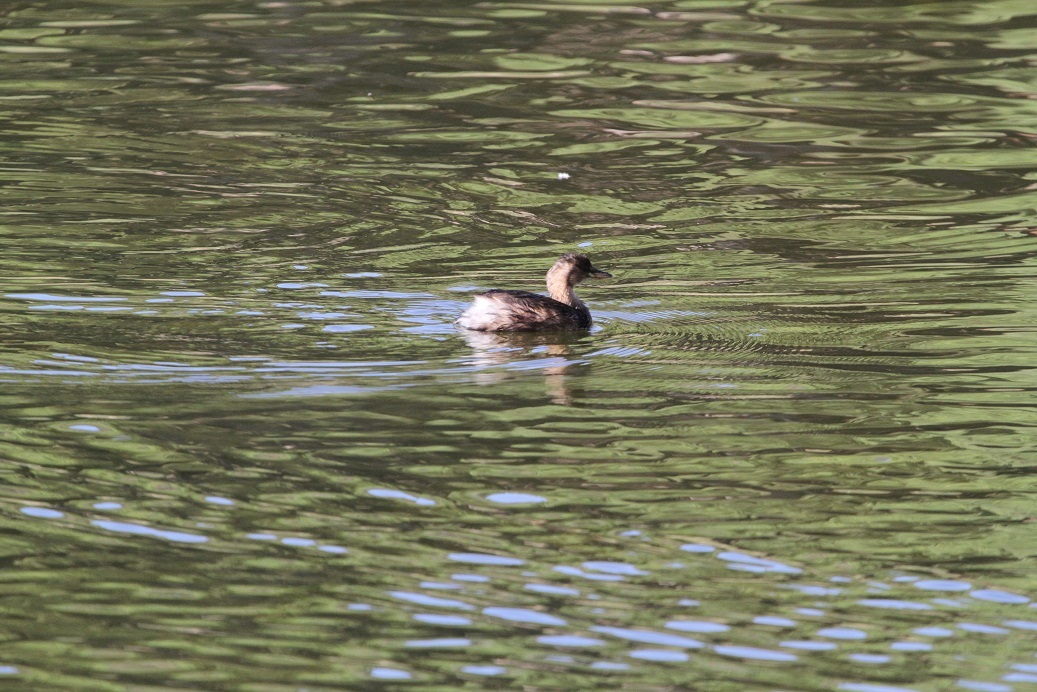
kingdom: Animalia
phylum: Chordata
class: Aves
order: Podicipediformes
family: Podicipedidae
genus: Tachybaptus
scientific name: Tachybaptus ruficollis
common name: Little grebe
